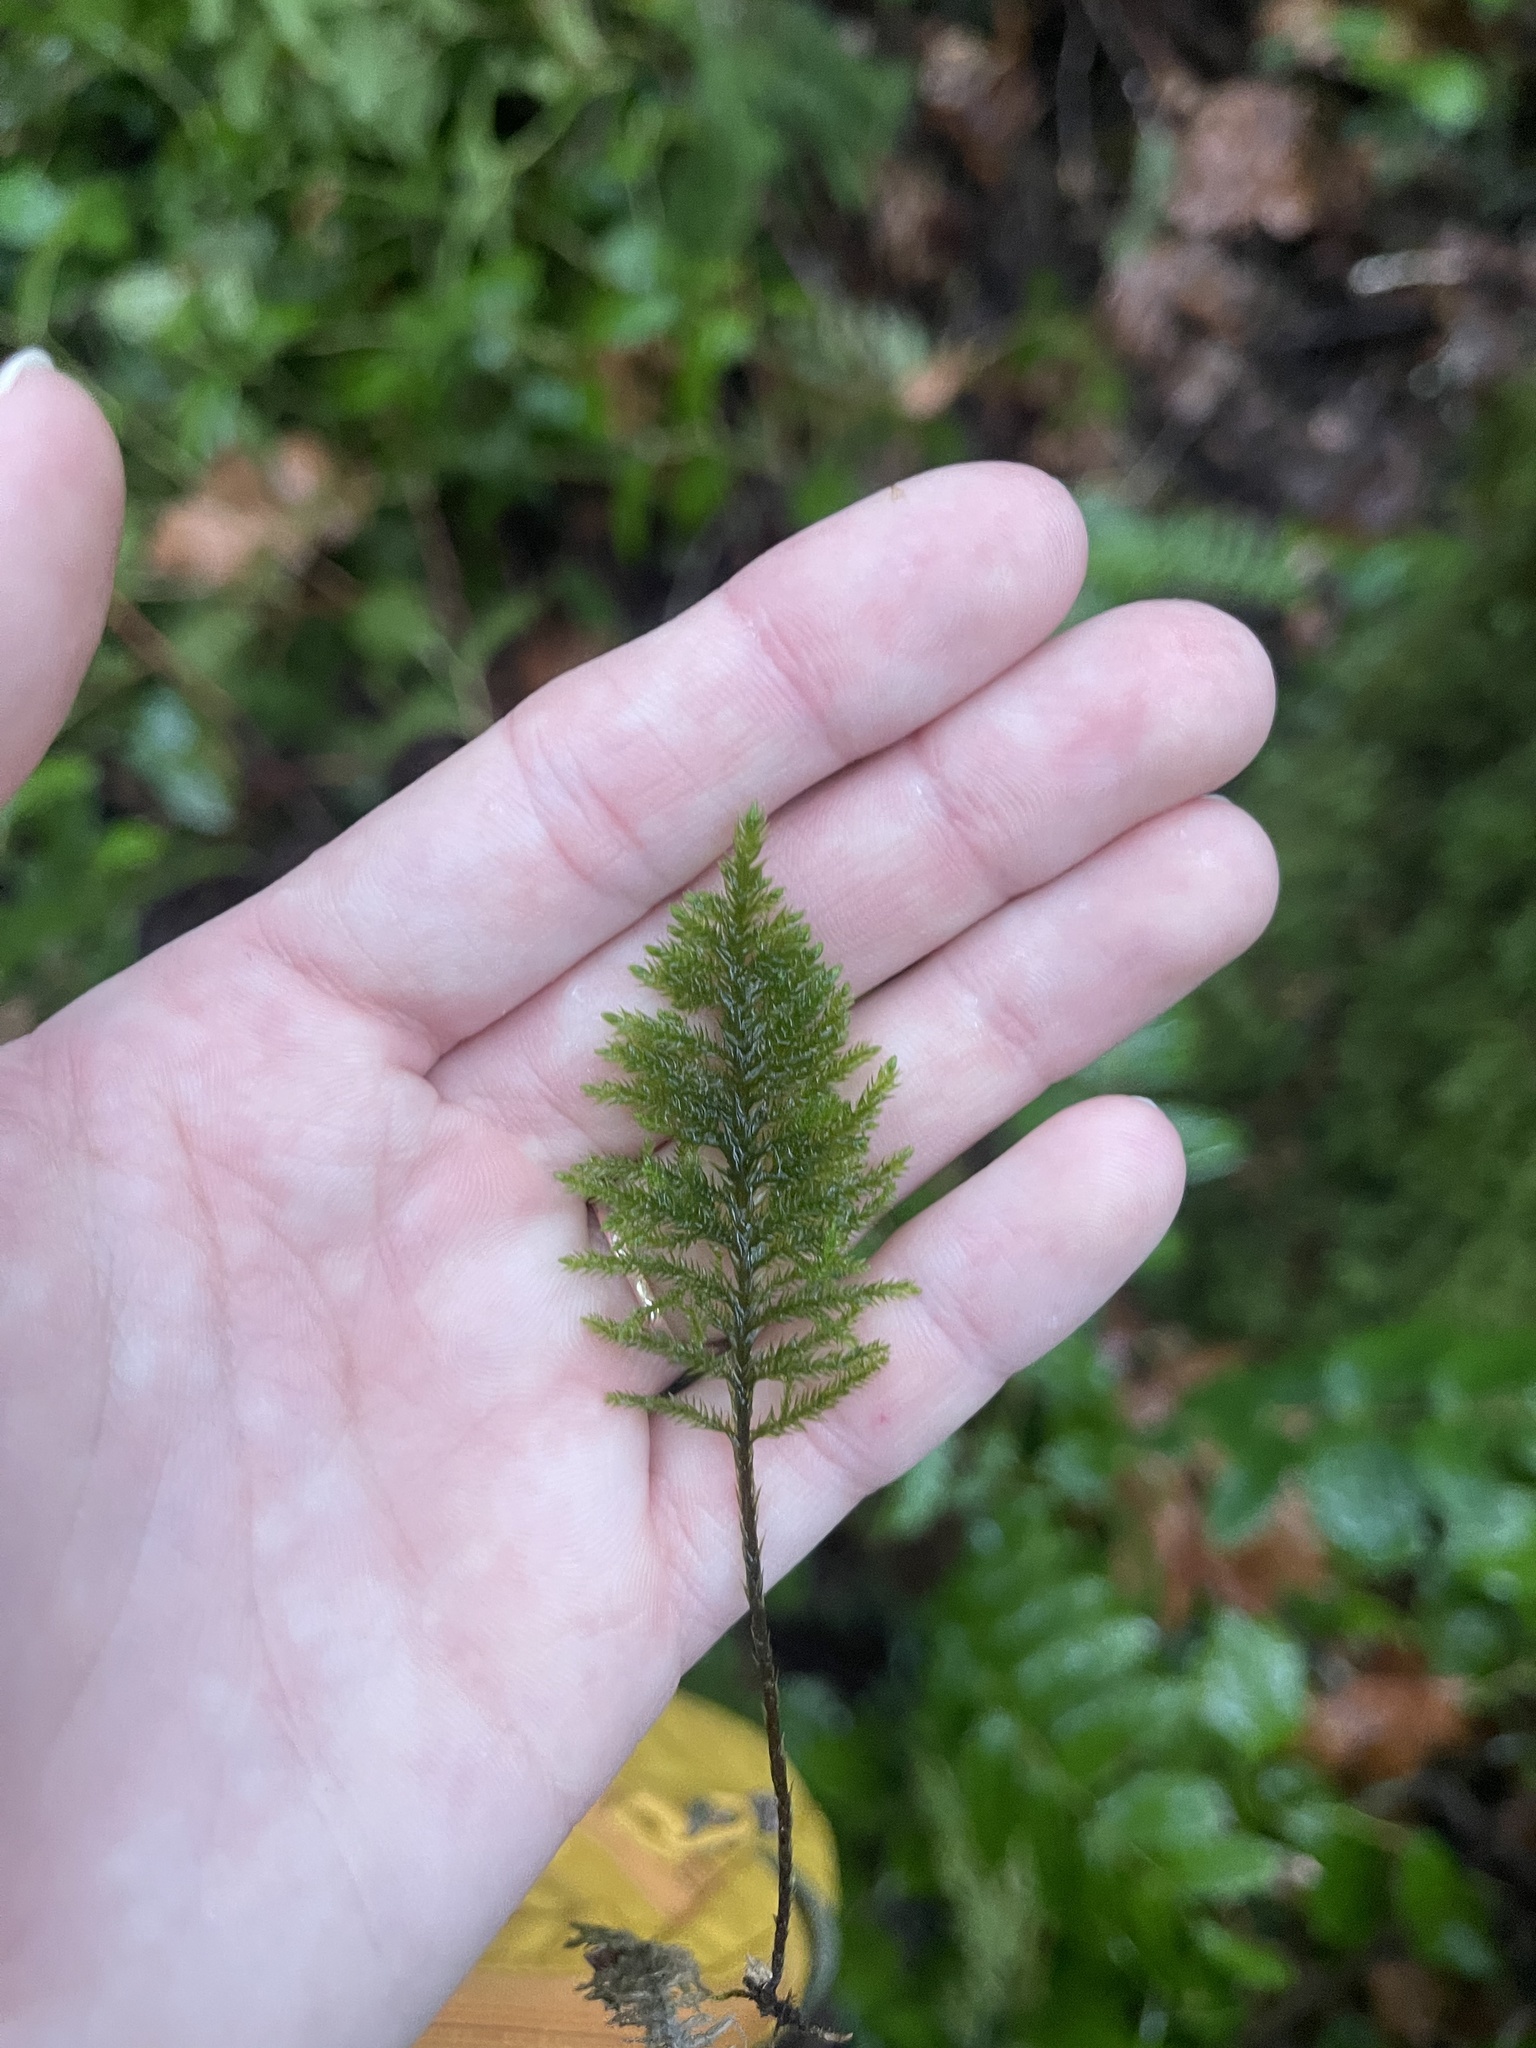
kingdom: Plantae
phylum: Bryophyta
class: Bryopsida
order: Hypnales
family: Cryphaeaceae
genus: Dendroalsia
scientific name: Dendroalsia abietina
